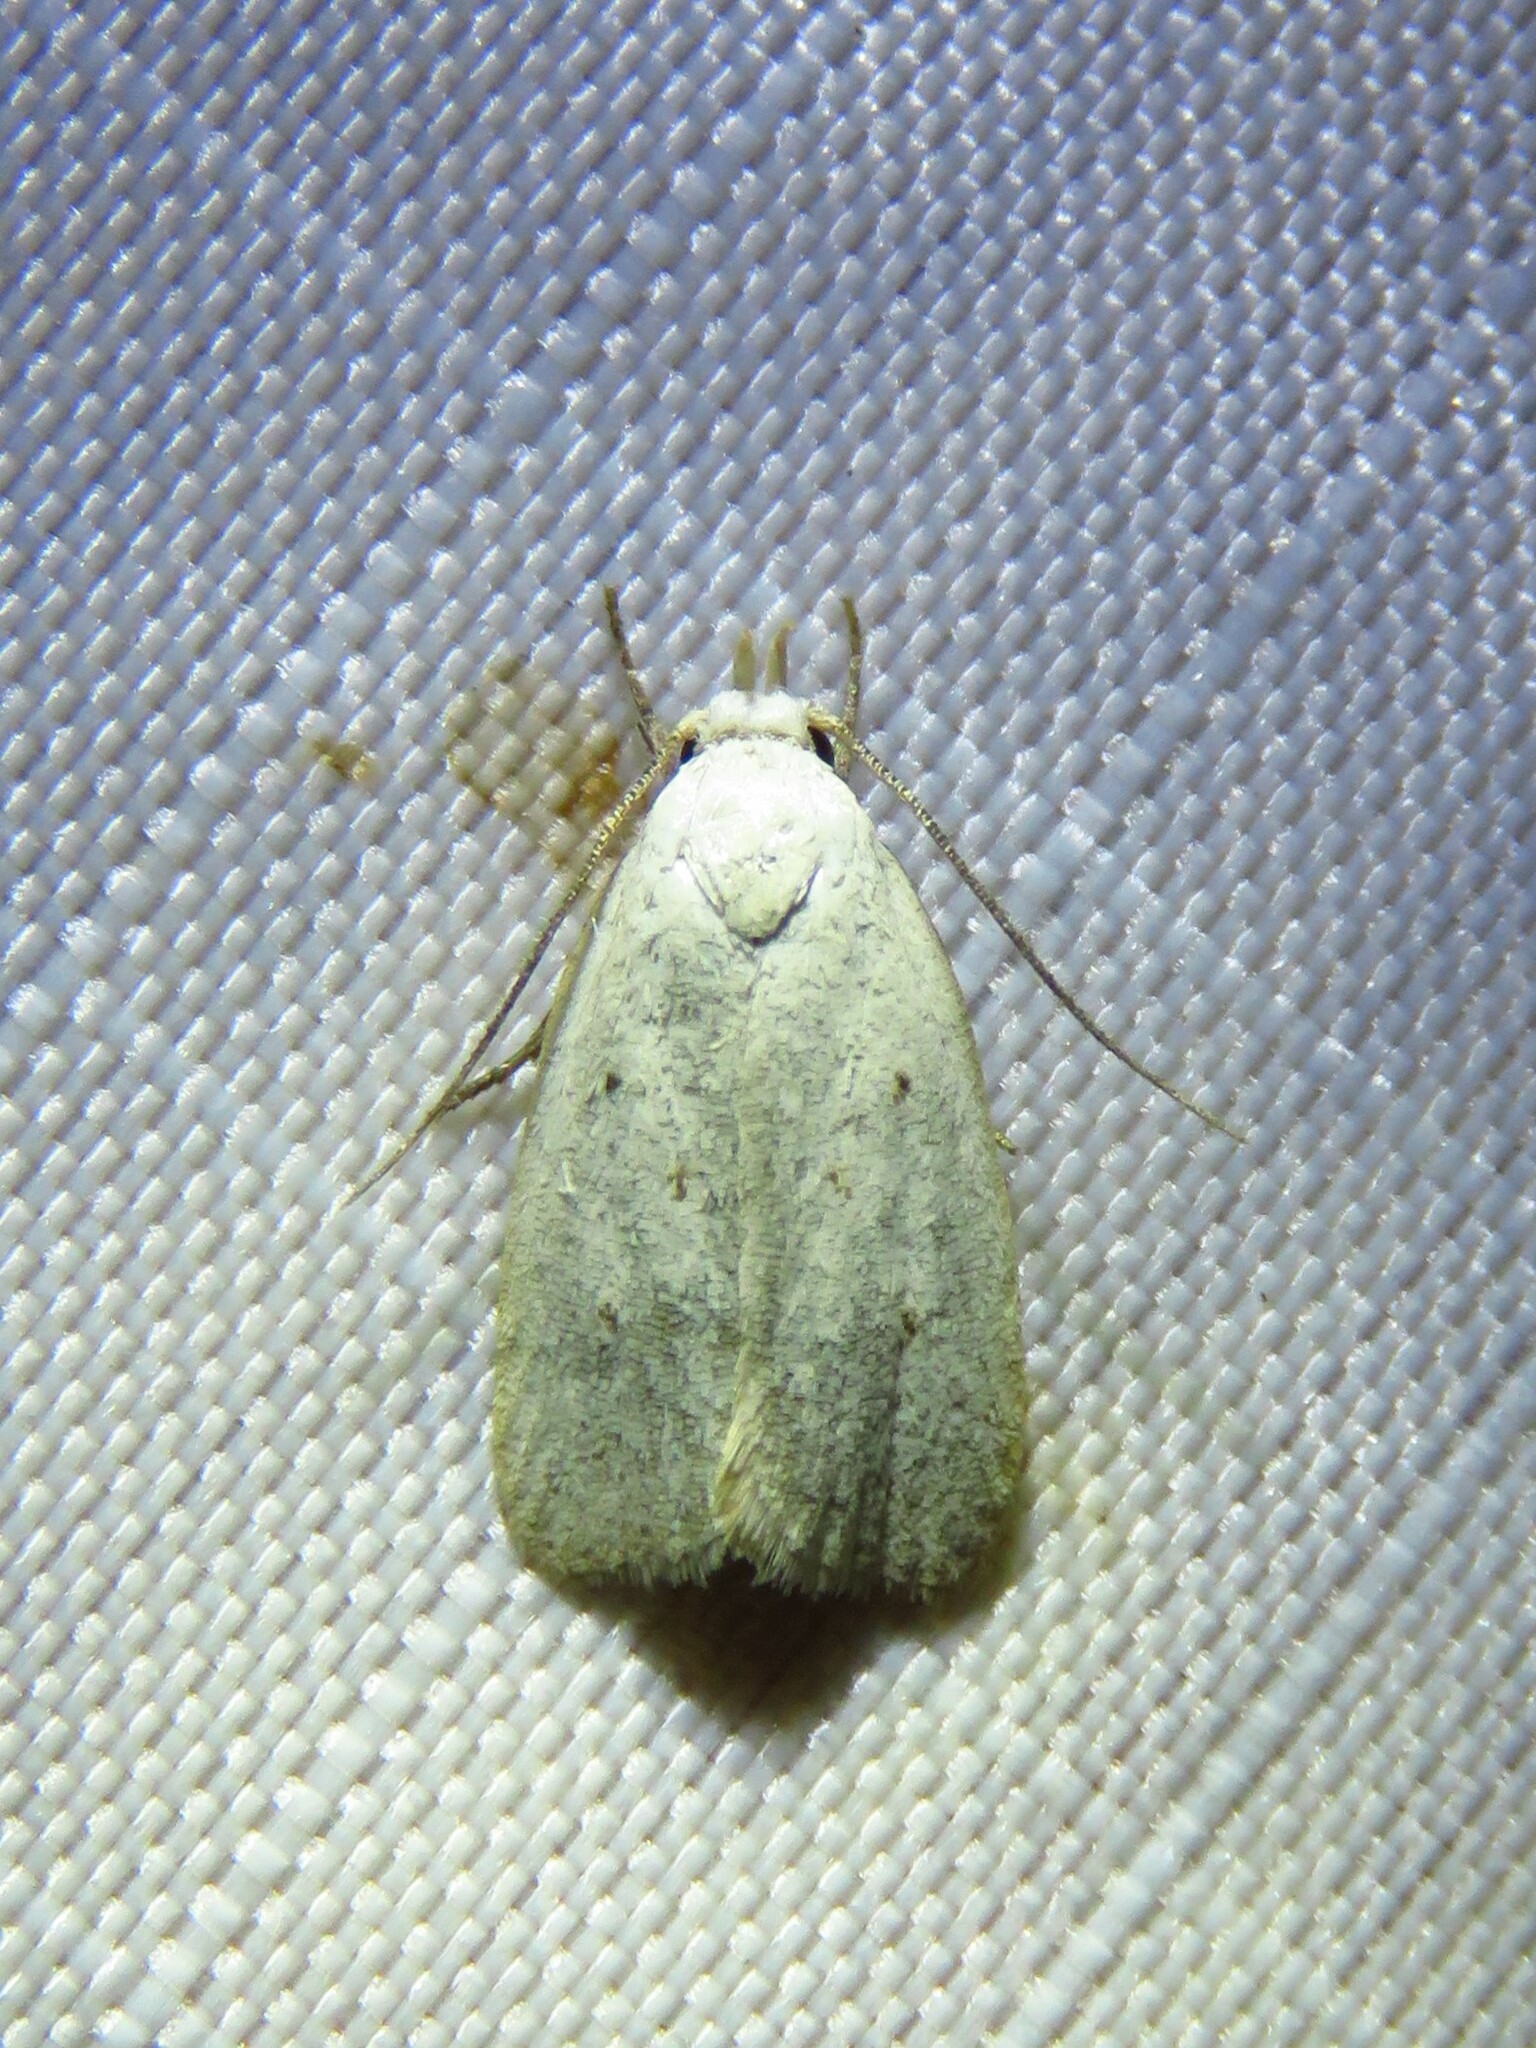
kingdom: Animalia
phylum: Arthropoda
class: Insecta
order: Lepidoptera
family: Oecophoridae
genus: Inga
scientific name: Inga cretacea
